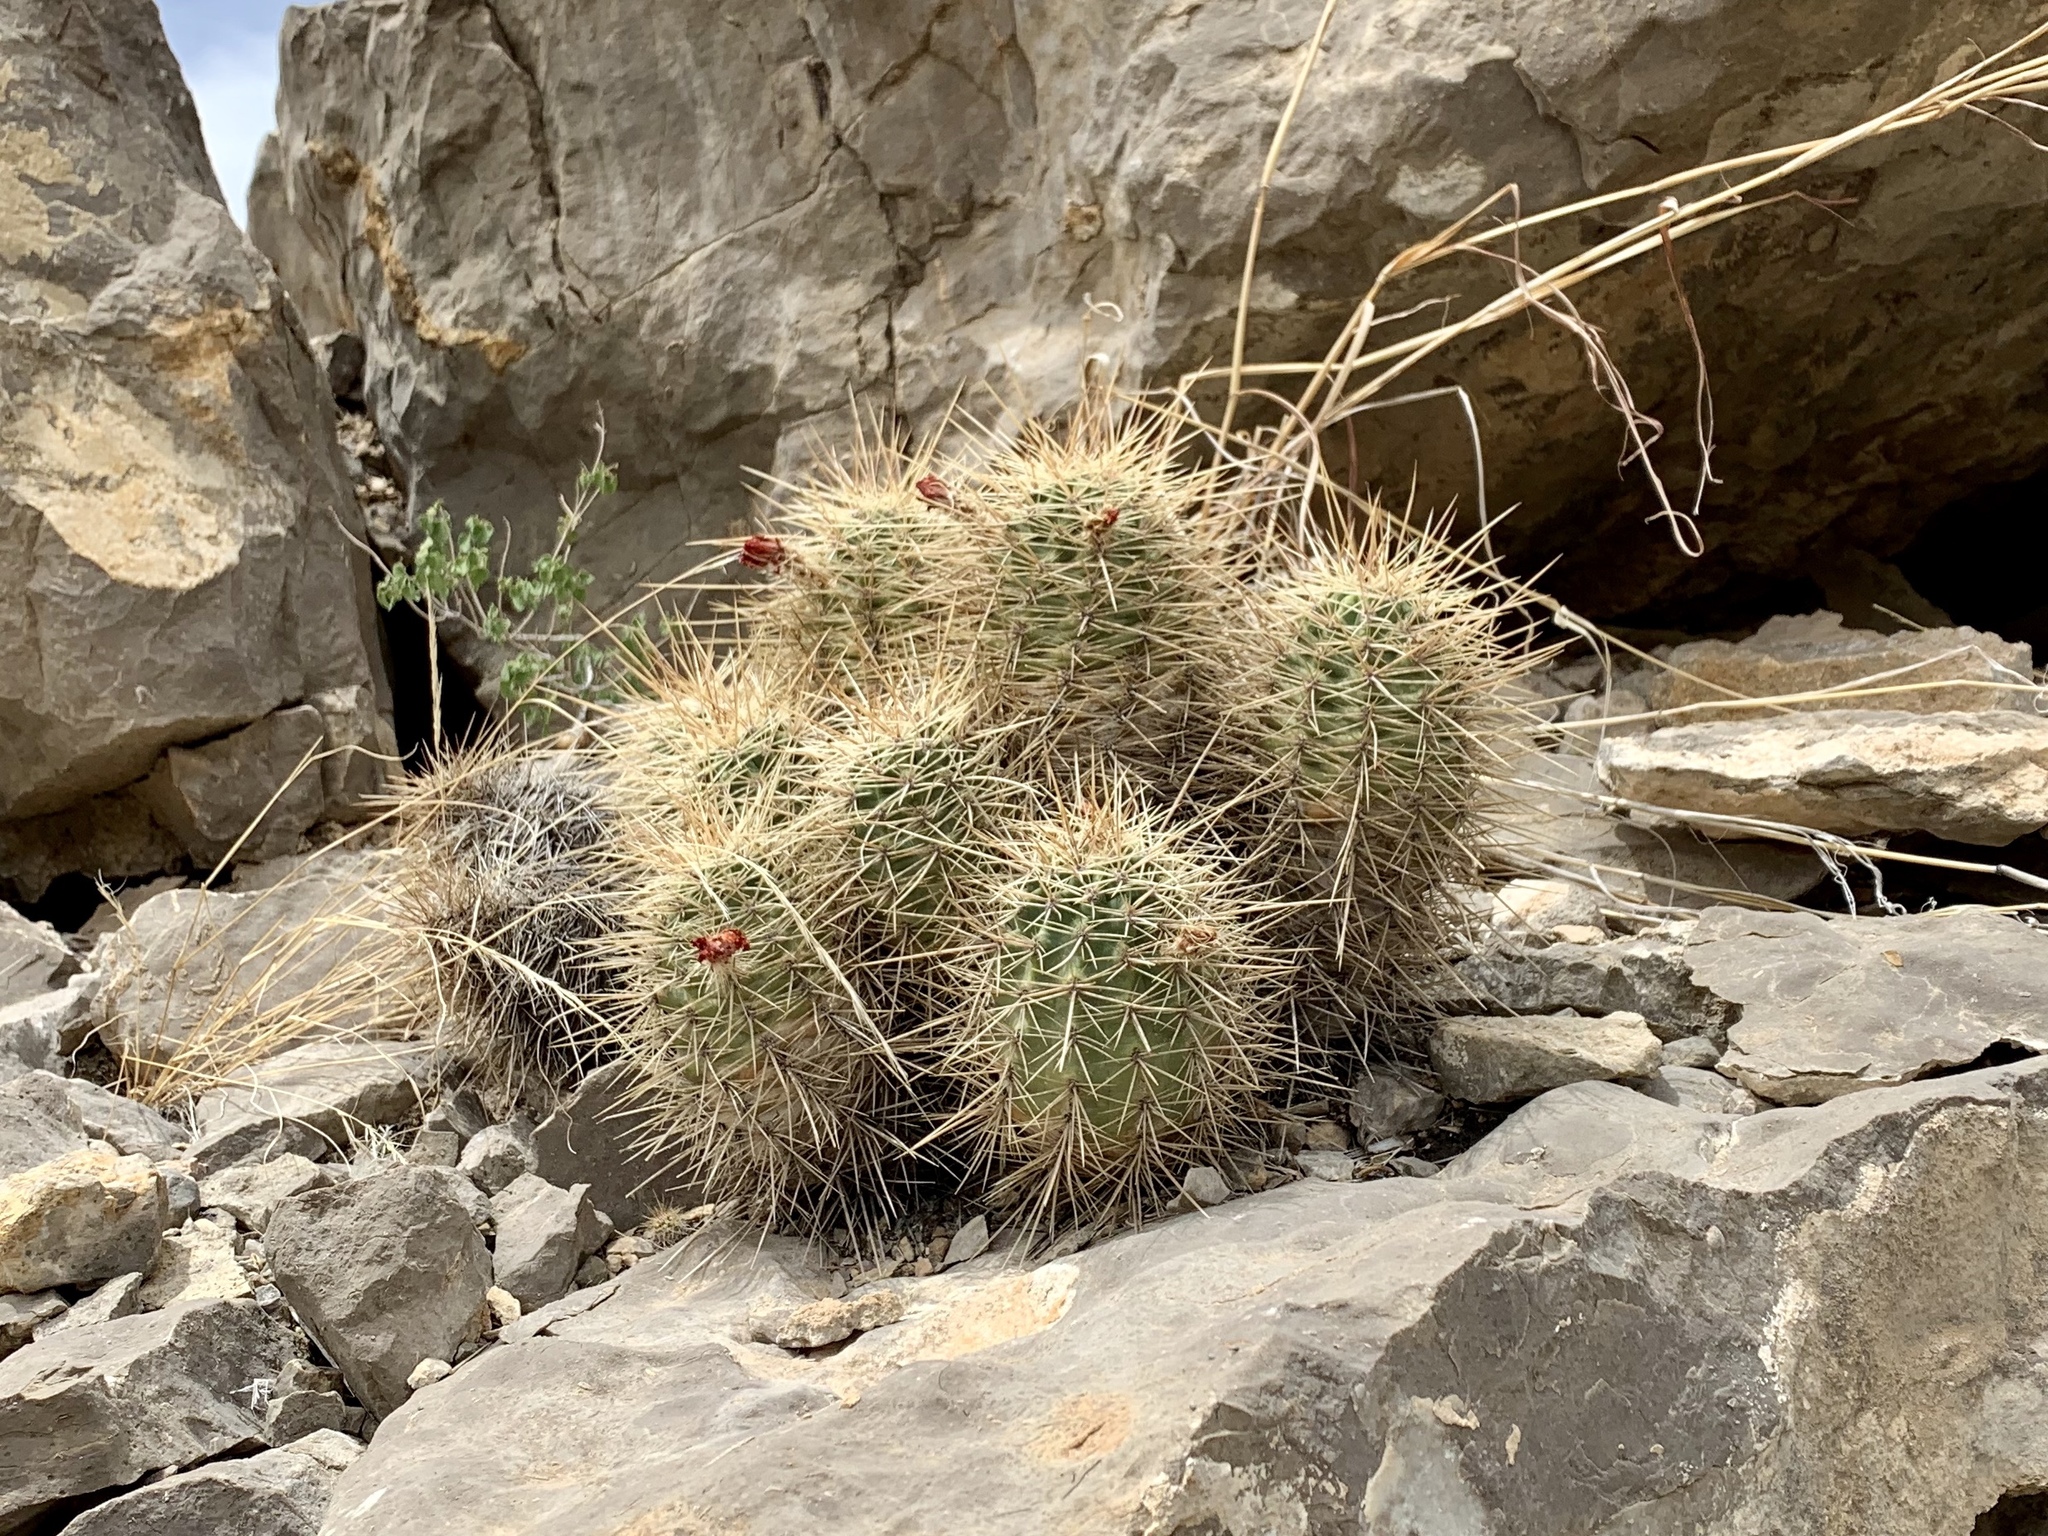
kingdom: Plantae
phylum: Tracheophyta
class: Magnoliopsida
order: Caryophyllales
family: Cactaceae
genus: Echinocereus
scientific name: Echinocereus coccineus
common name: Scarlet hedgehog cactus
